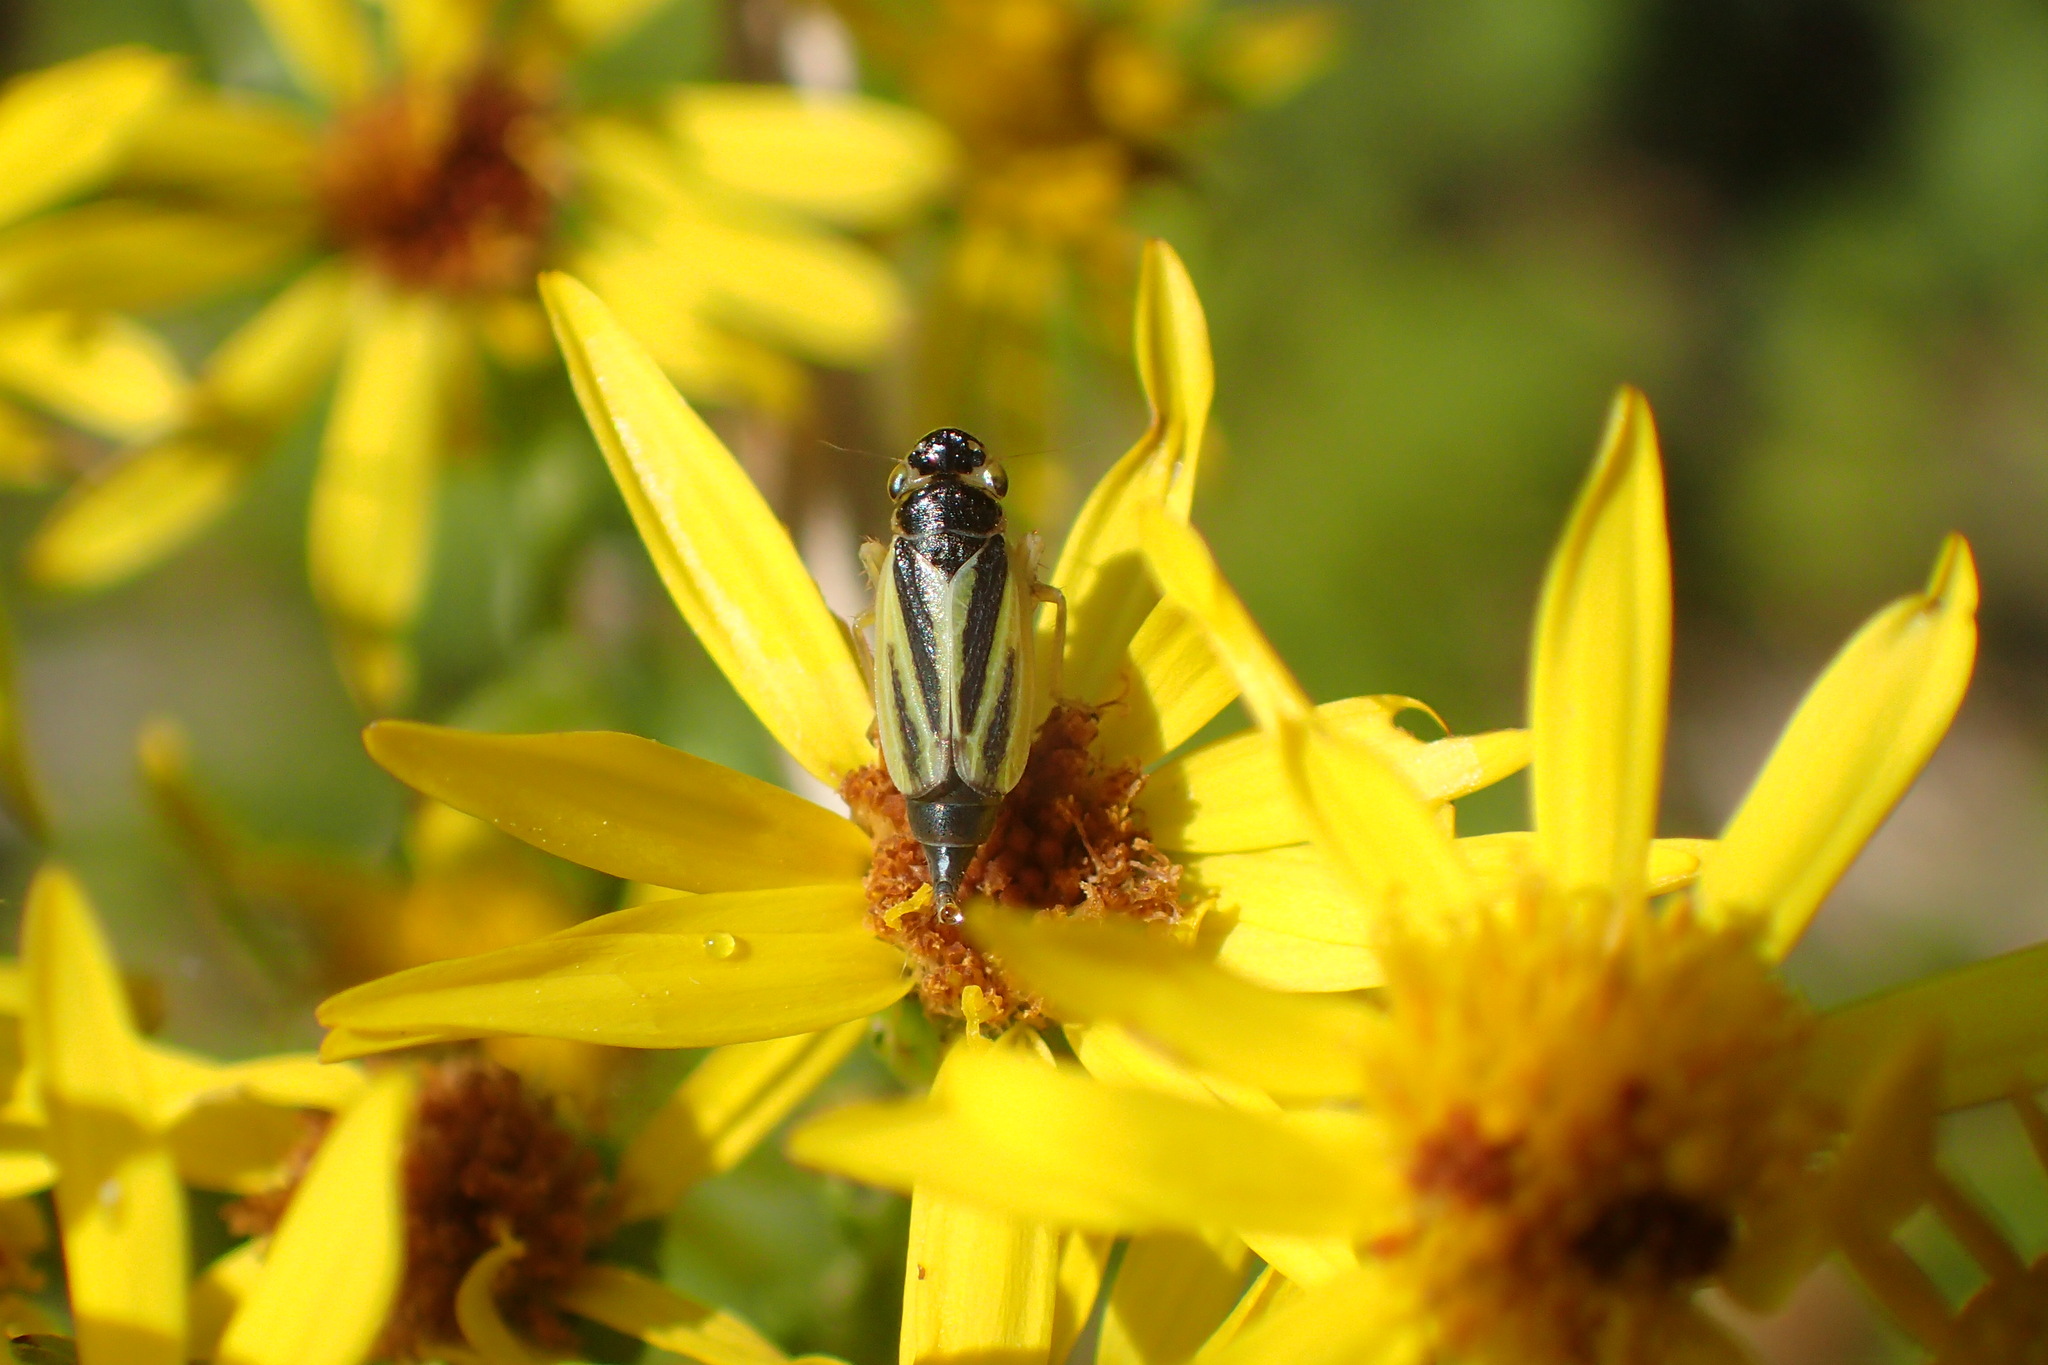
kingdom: Animalia
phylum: Arthropoda
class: Insecta
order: Hemiptera
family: Cicadellidae
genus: Evacanthus
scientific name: Evacanthus interruptus
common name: Leafhopper
